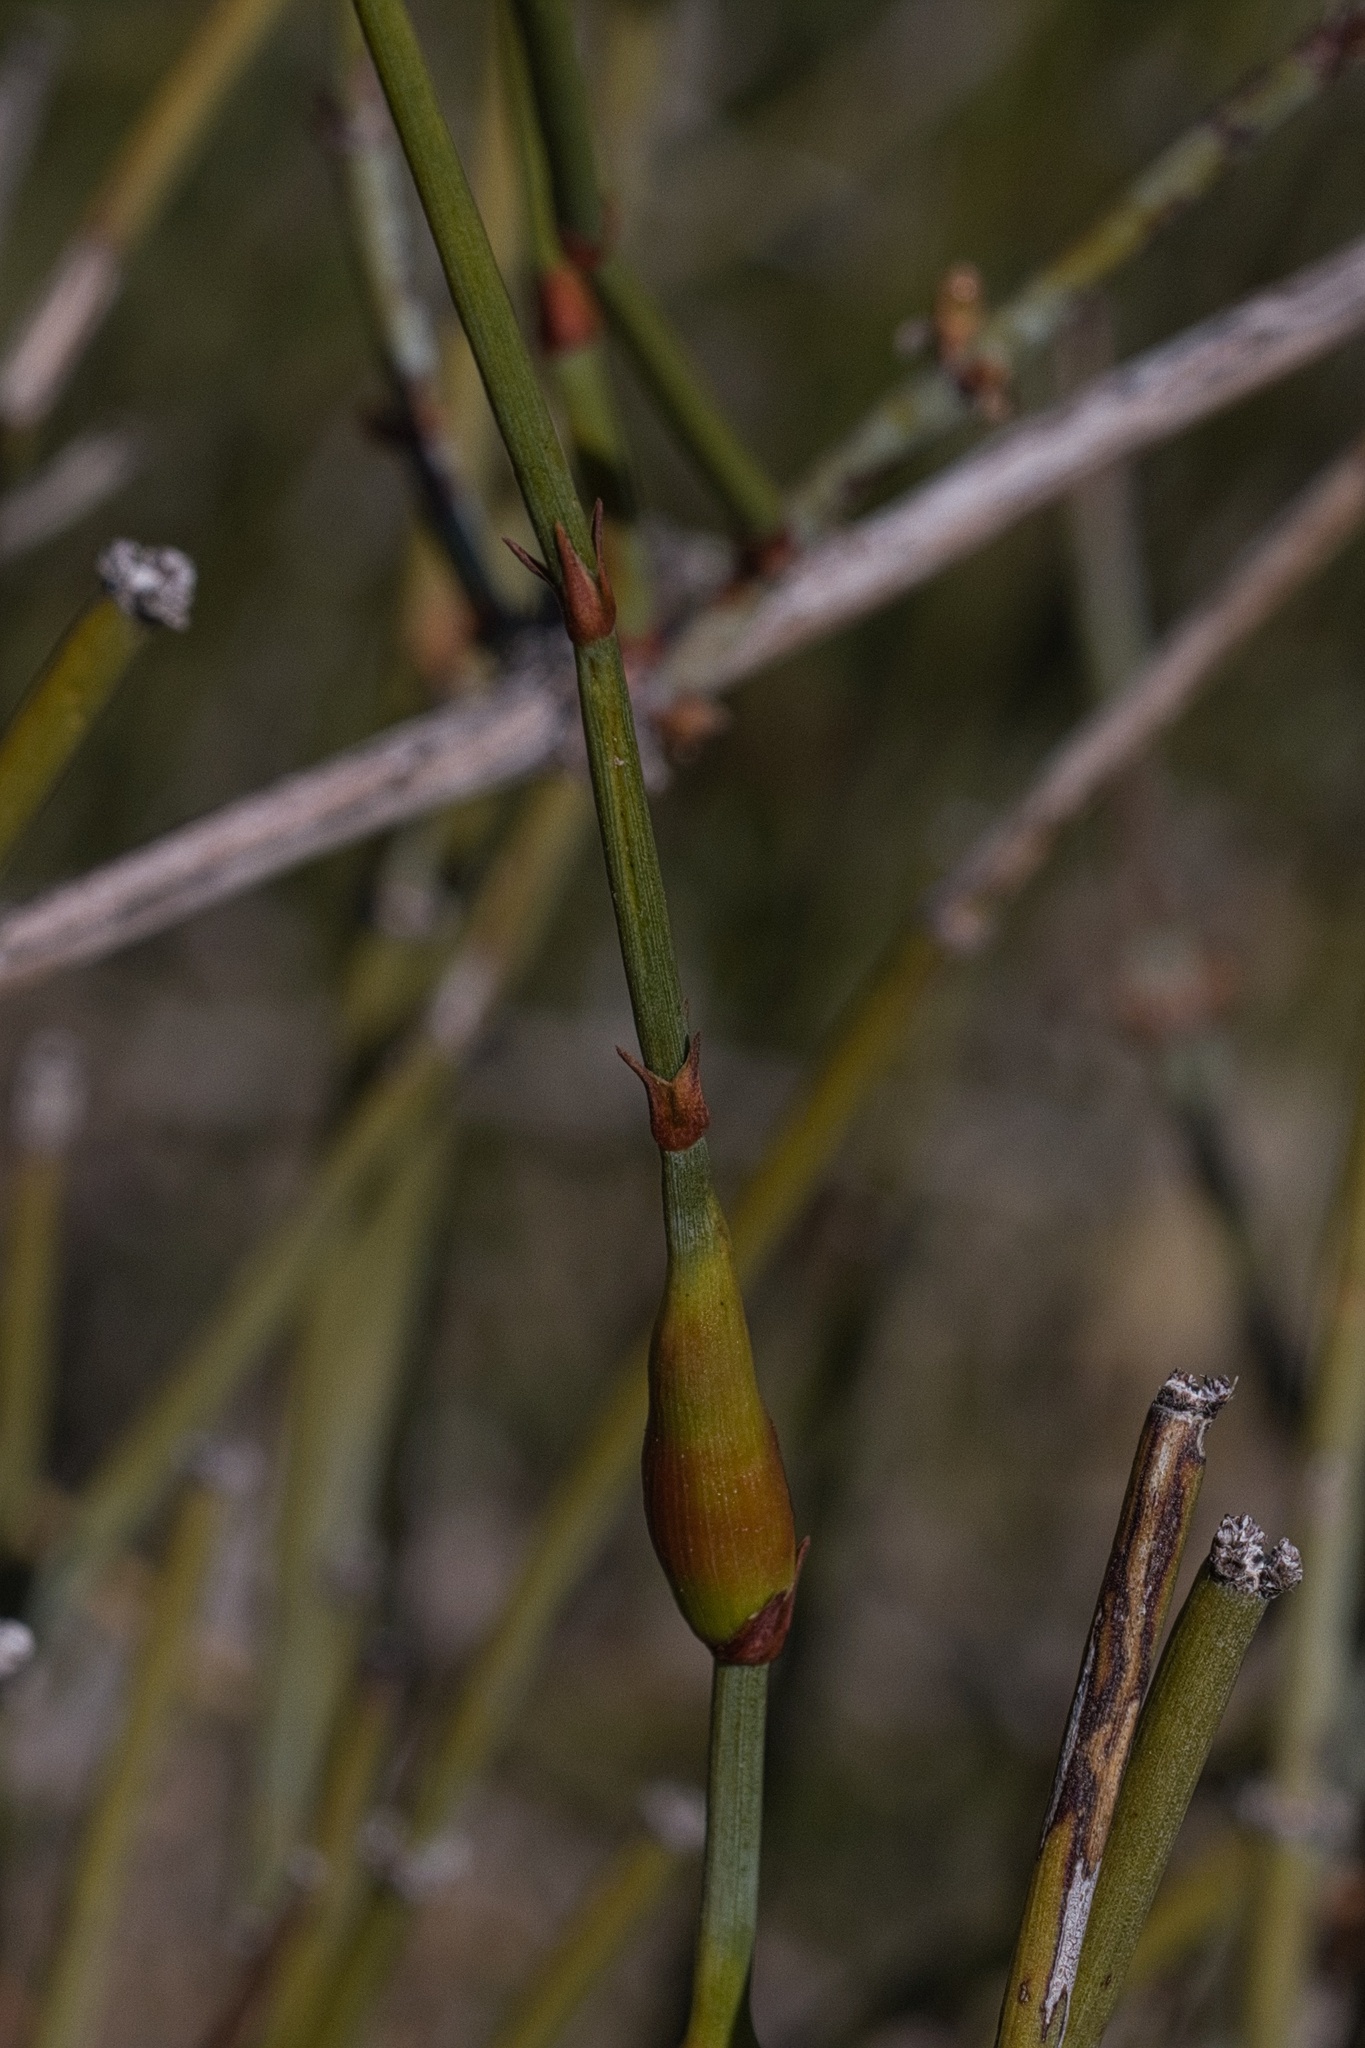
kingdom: Plantae
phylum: Tracheophyta
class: Gnetopsida
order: Ephedrales
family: Ephedraceae
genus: Ephedra
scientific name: Ephedra californica
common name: California ephedra
